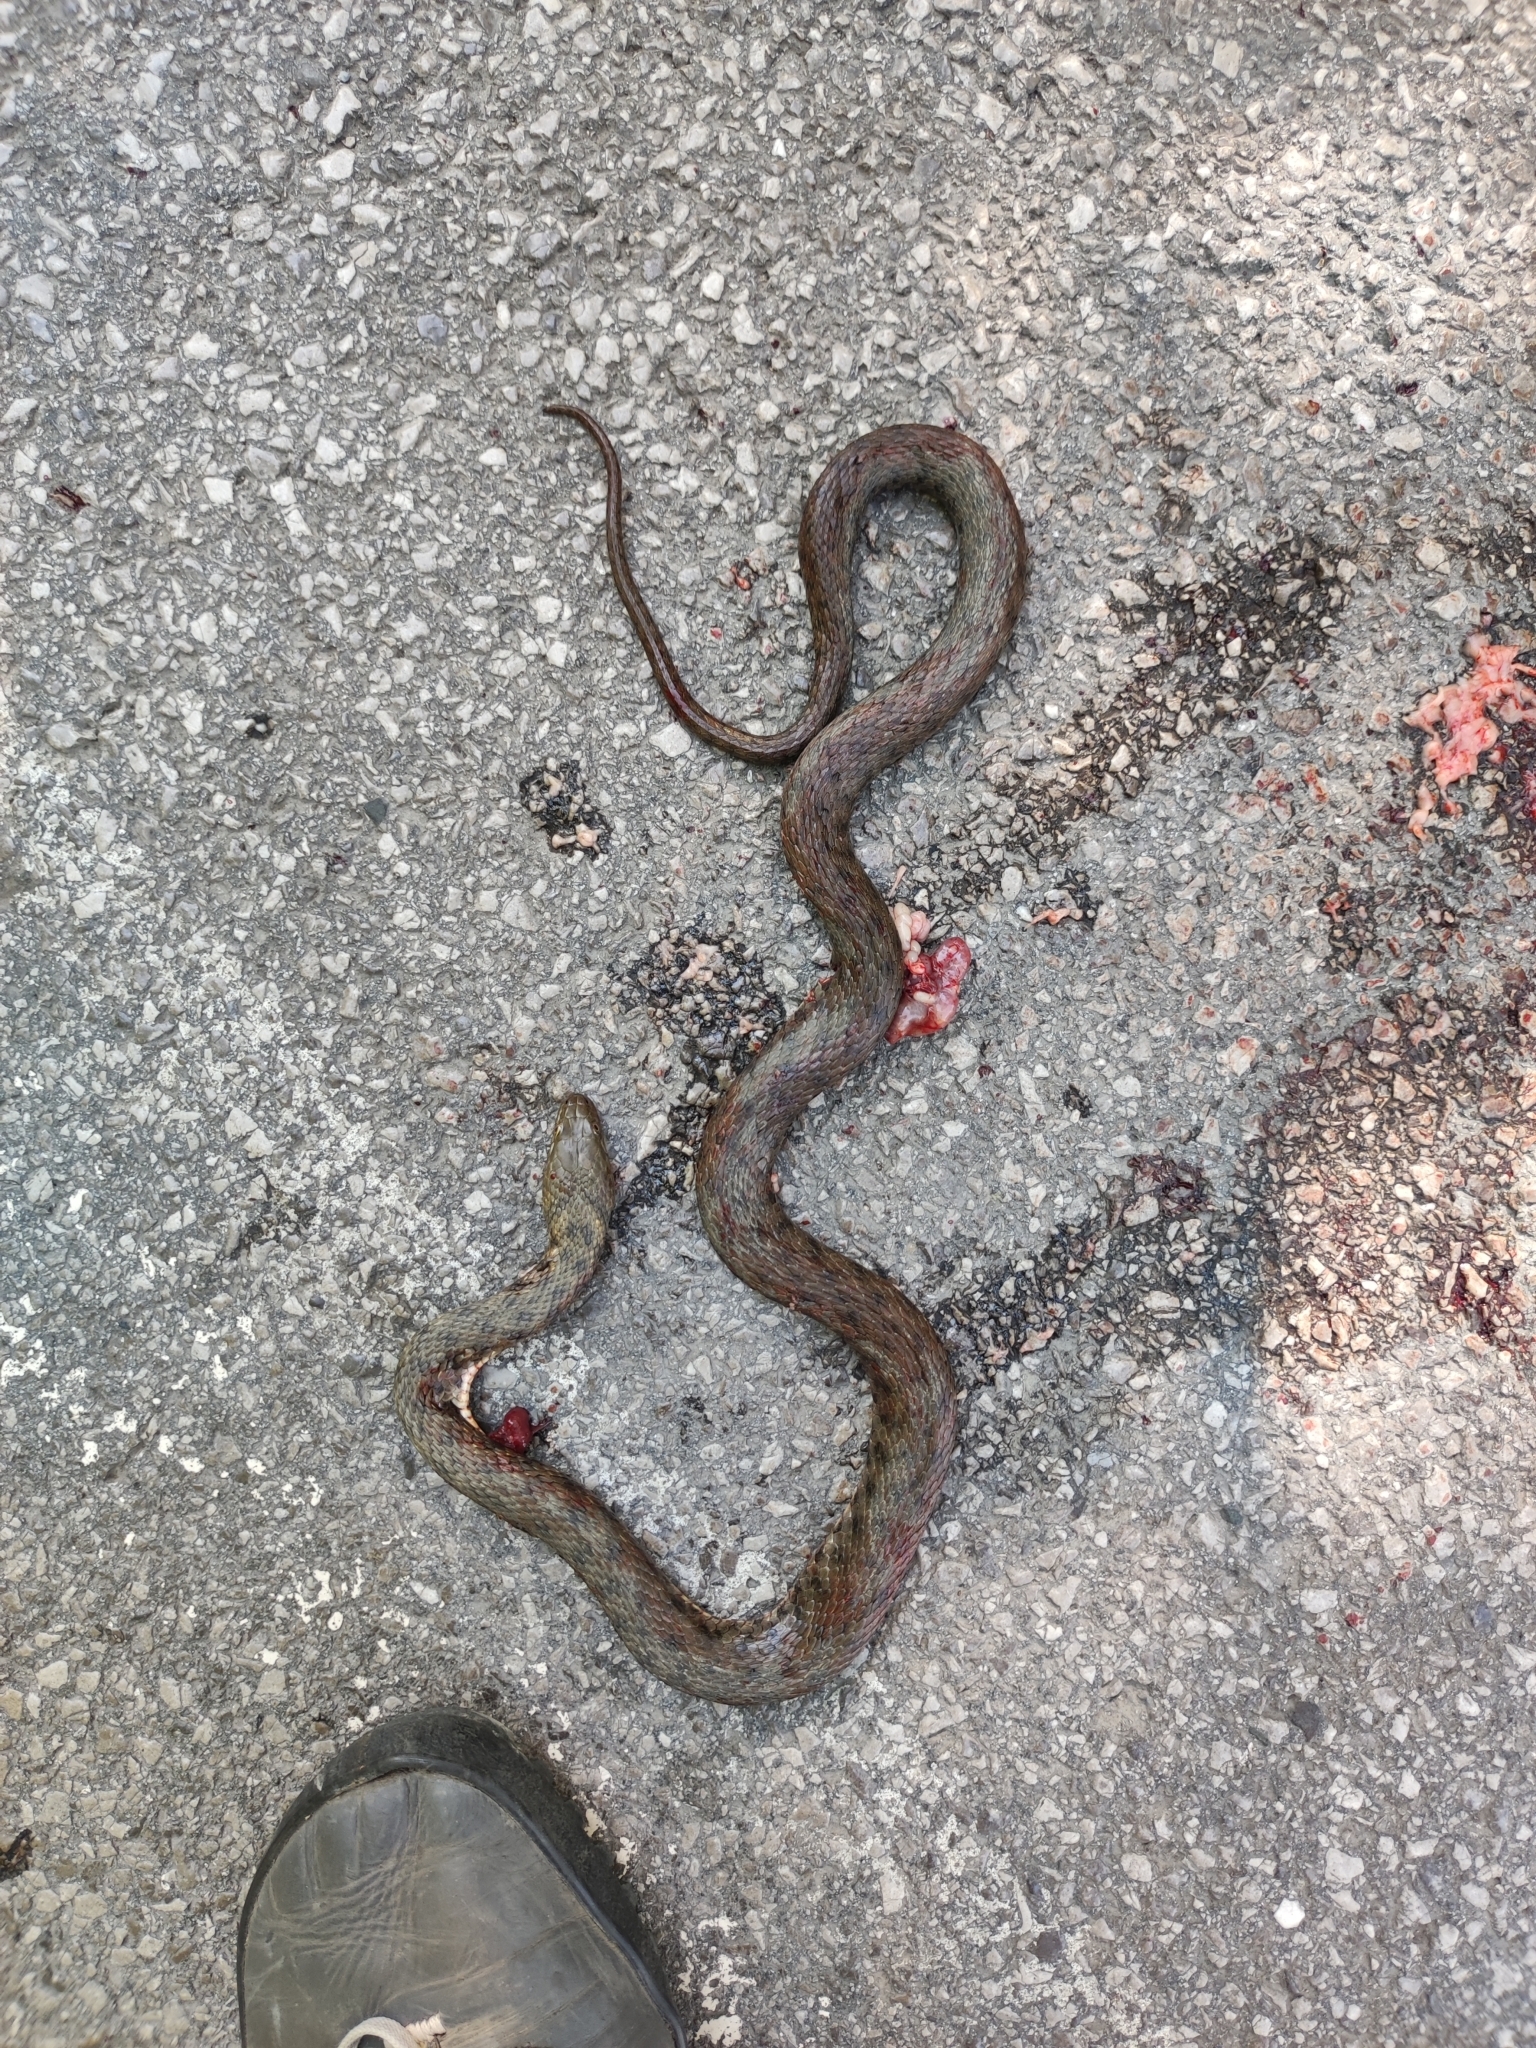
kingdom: Animalia
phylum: Chordata
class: Squamata
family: Colubridae
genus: Natrix
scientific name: Natrix tessellata
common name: Dice snake
